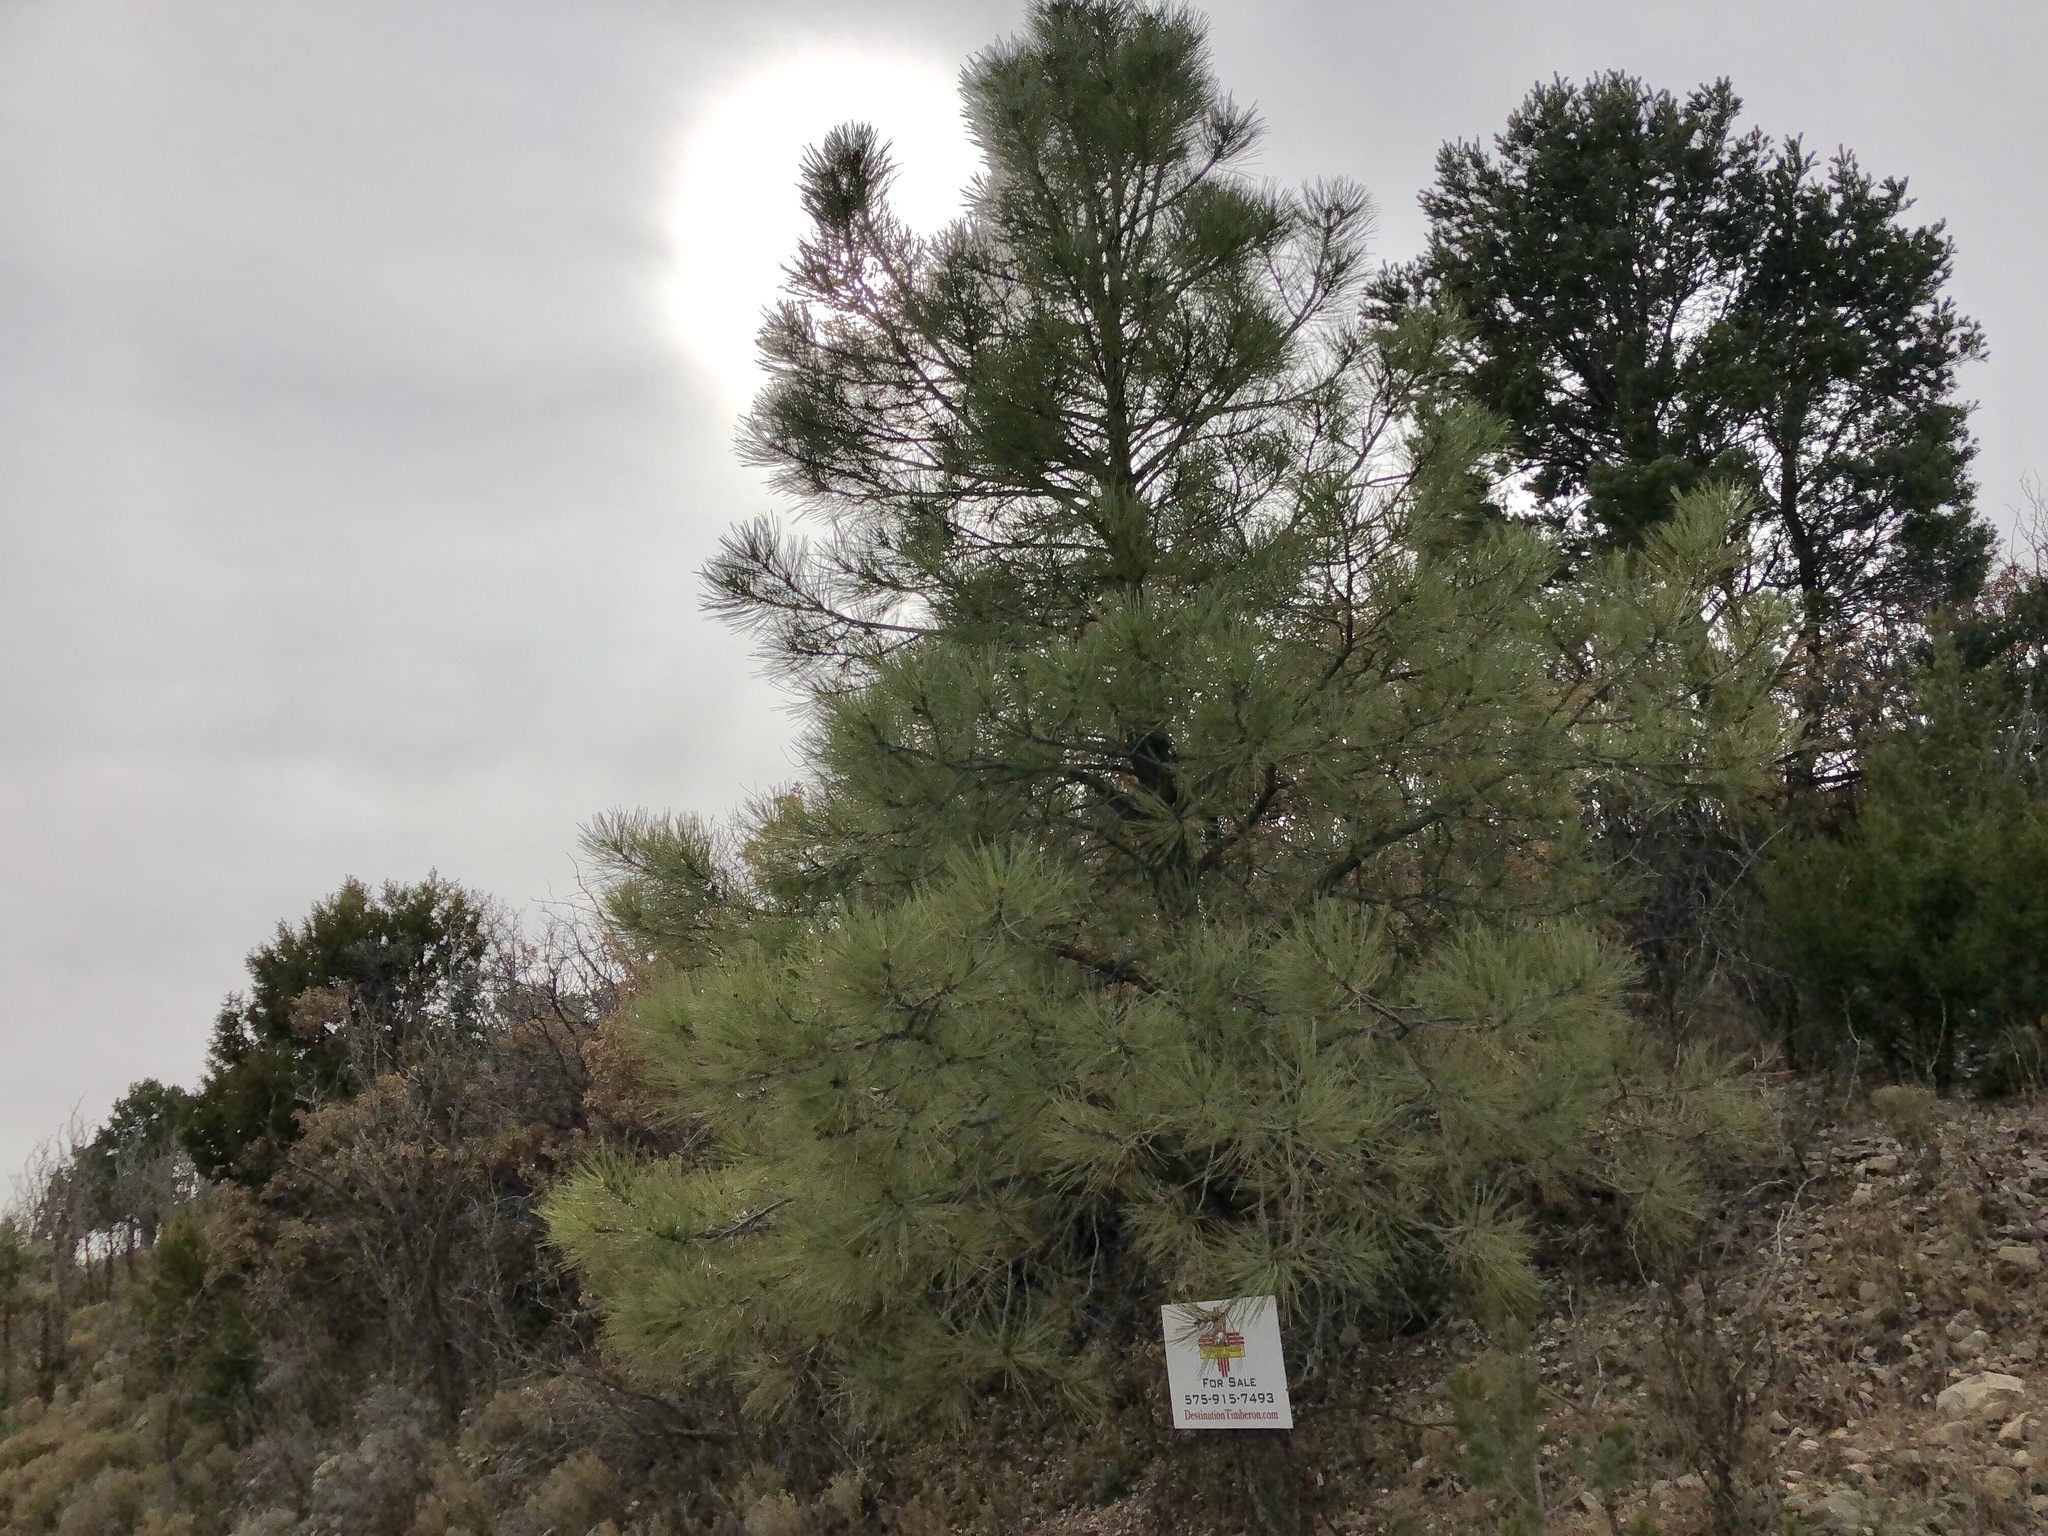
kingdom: Plantae
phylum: Tracheophyta
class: Pinopsida
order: Pinales
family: Cupressaceae
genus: Juniperus
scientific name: Juniperus deppeana
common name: Alligator juniper
